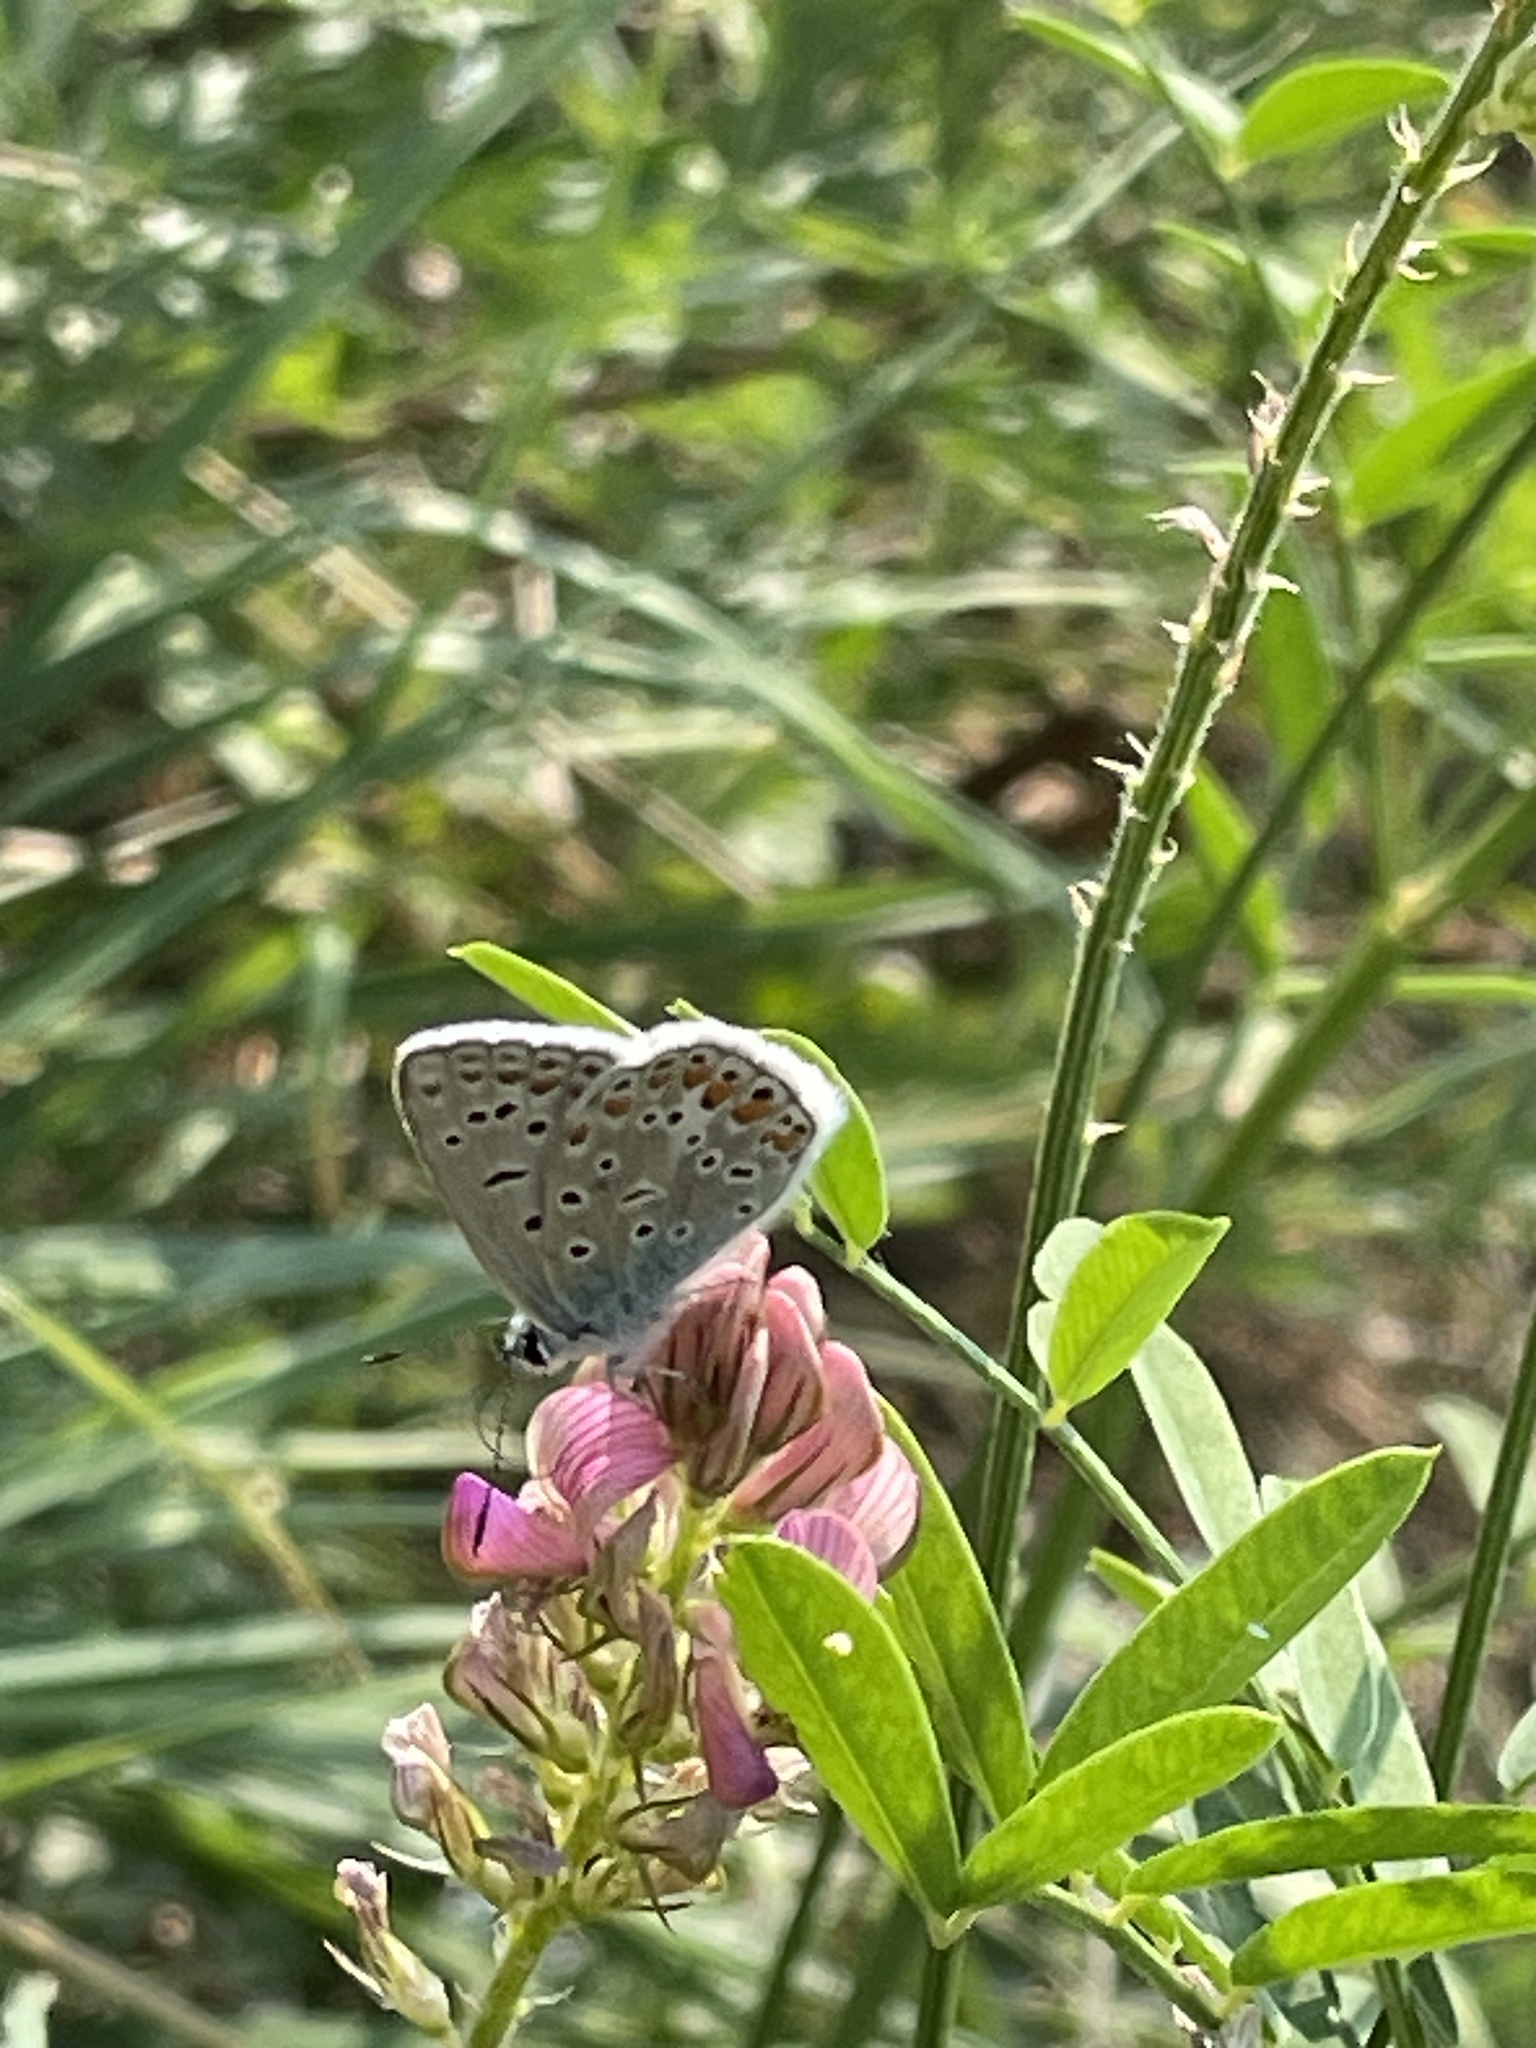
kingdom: Animalia
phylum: Arthropoda
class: Insecta
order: Lepidoptera
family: Lycaenidae
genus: Polyommatus
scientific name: Polyommatus icarus
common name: Common blue
